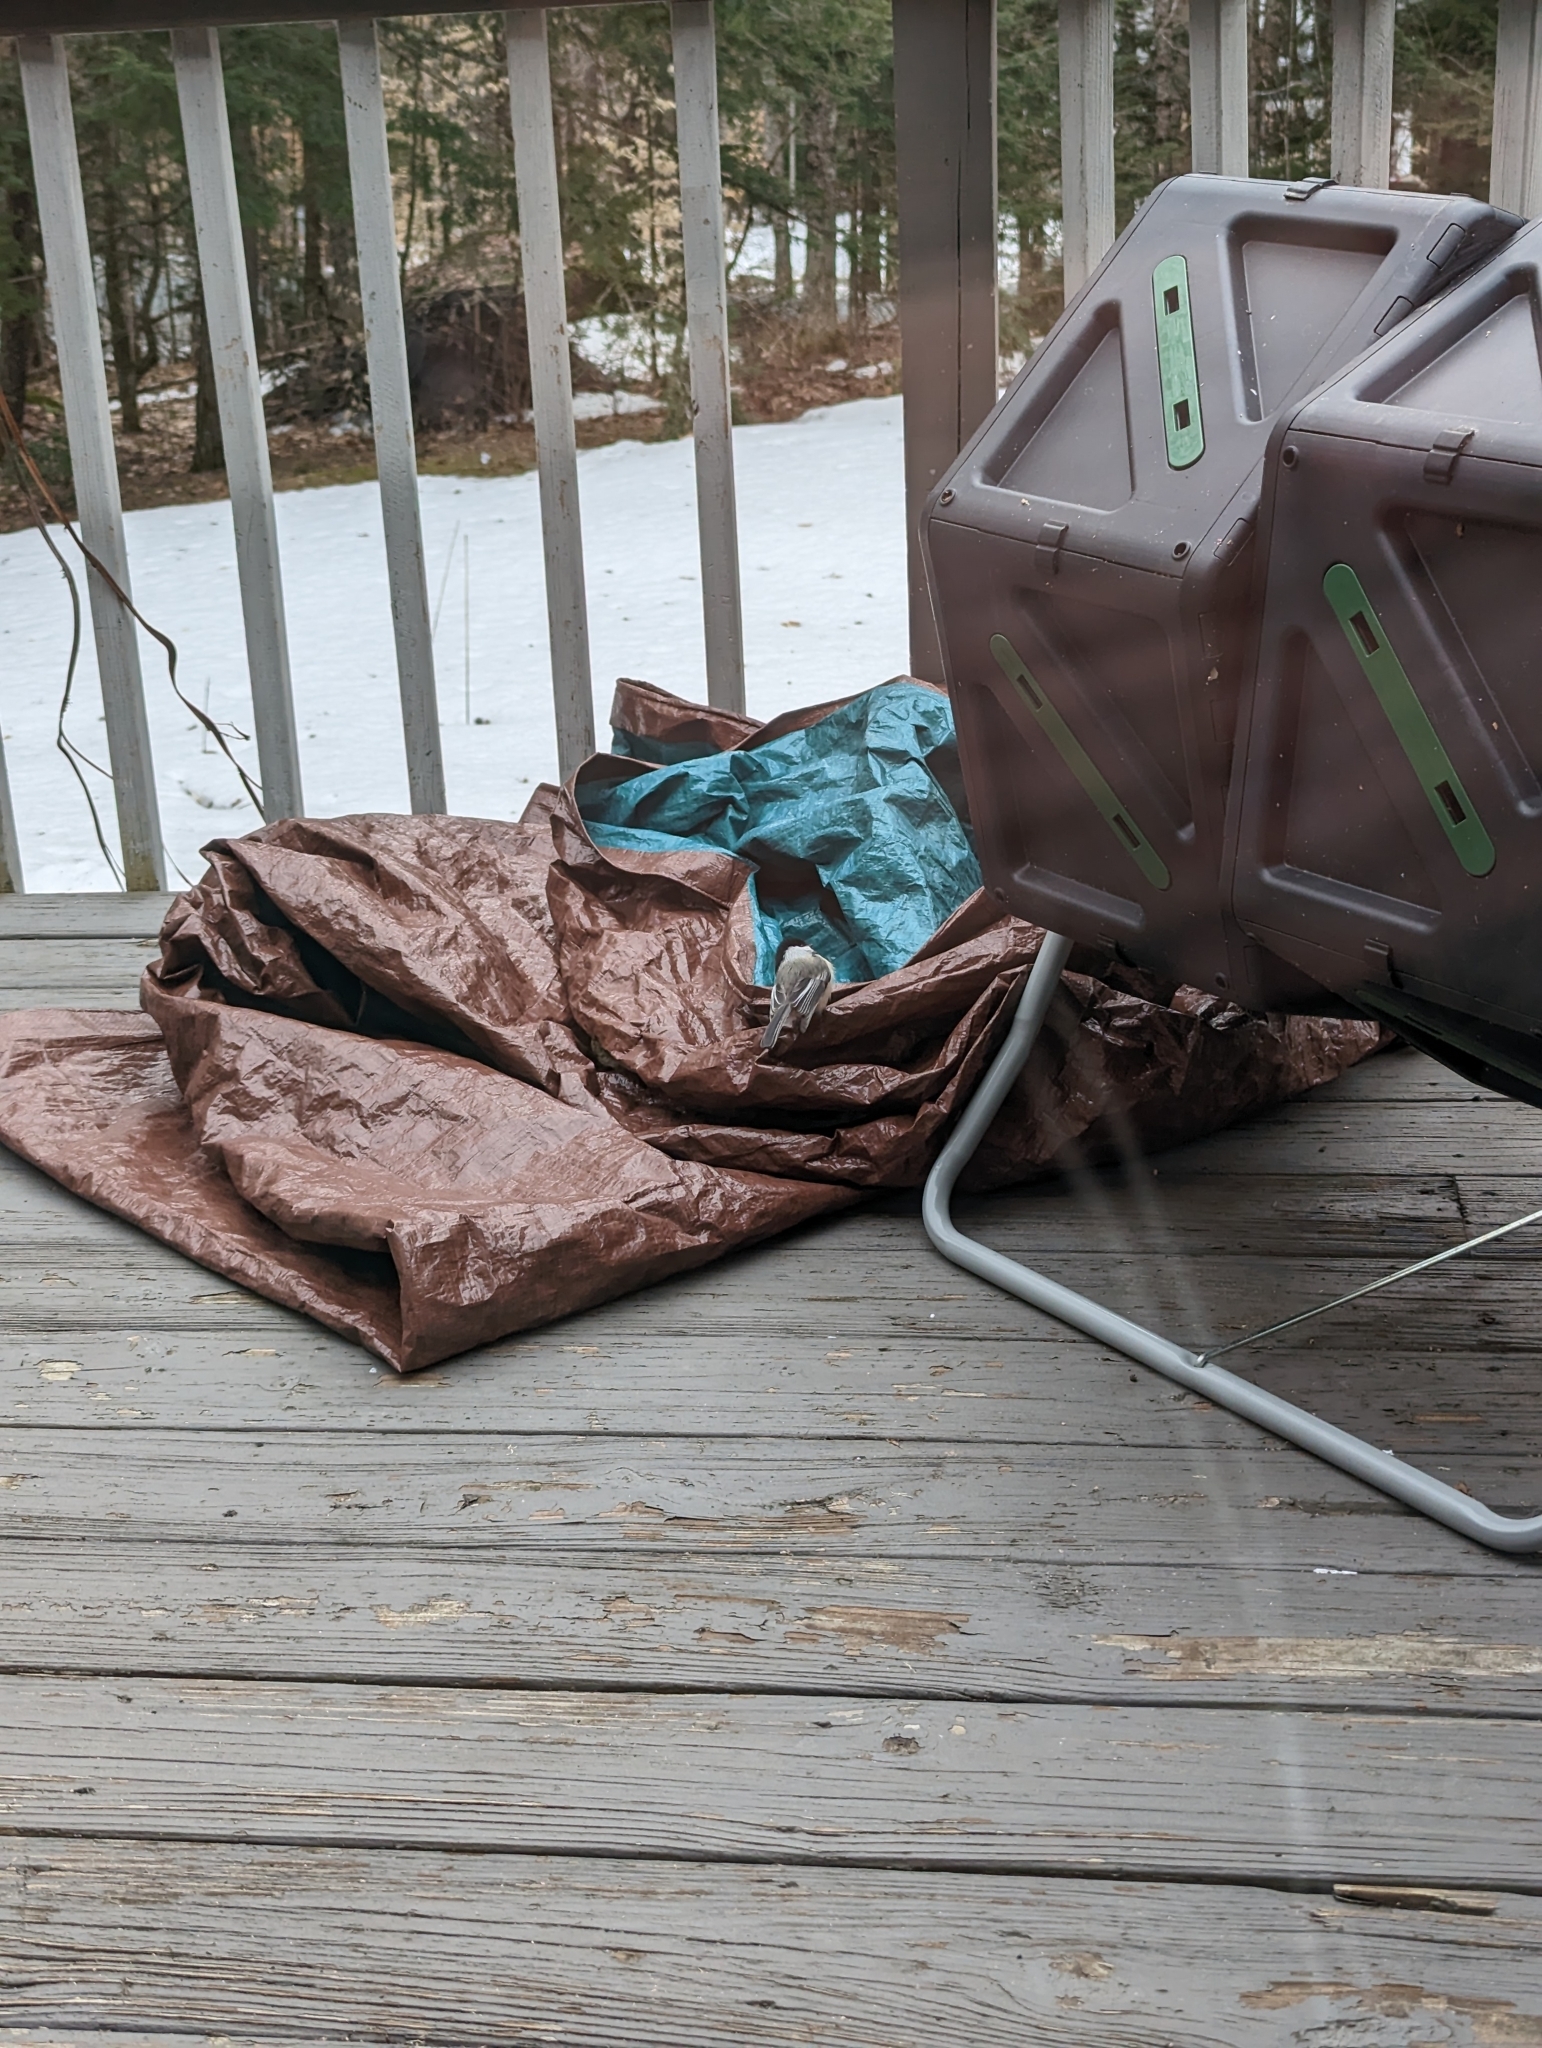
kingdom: Animalia
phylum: Chordata
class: Aves
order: Passeriformes
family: Paridae
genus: Poecile
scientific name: Poecile atricapillus
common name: Black-capped chickadee
